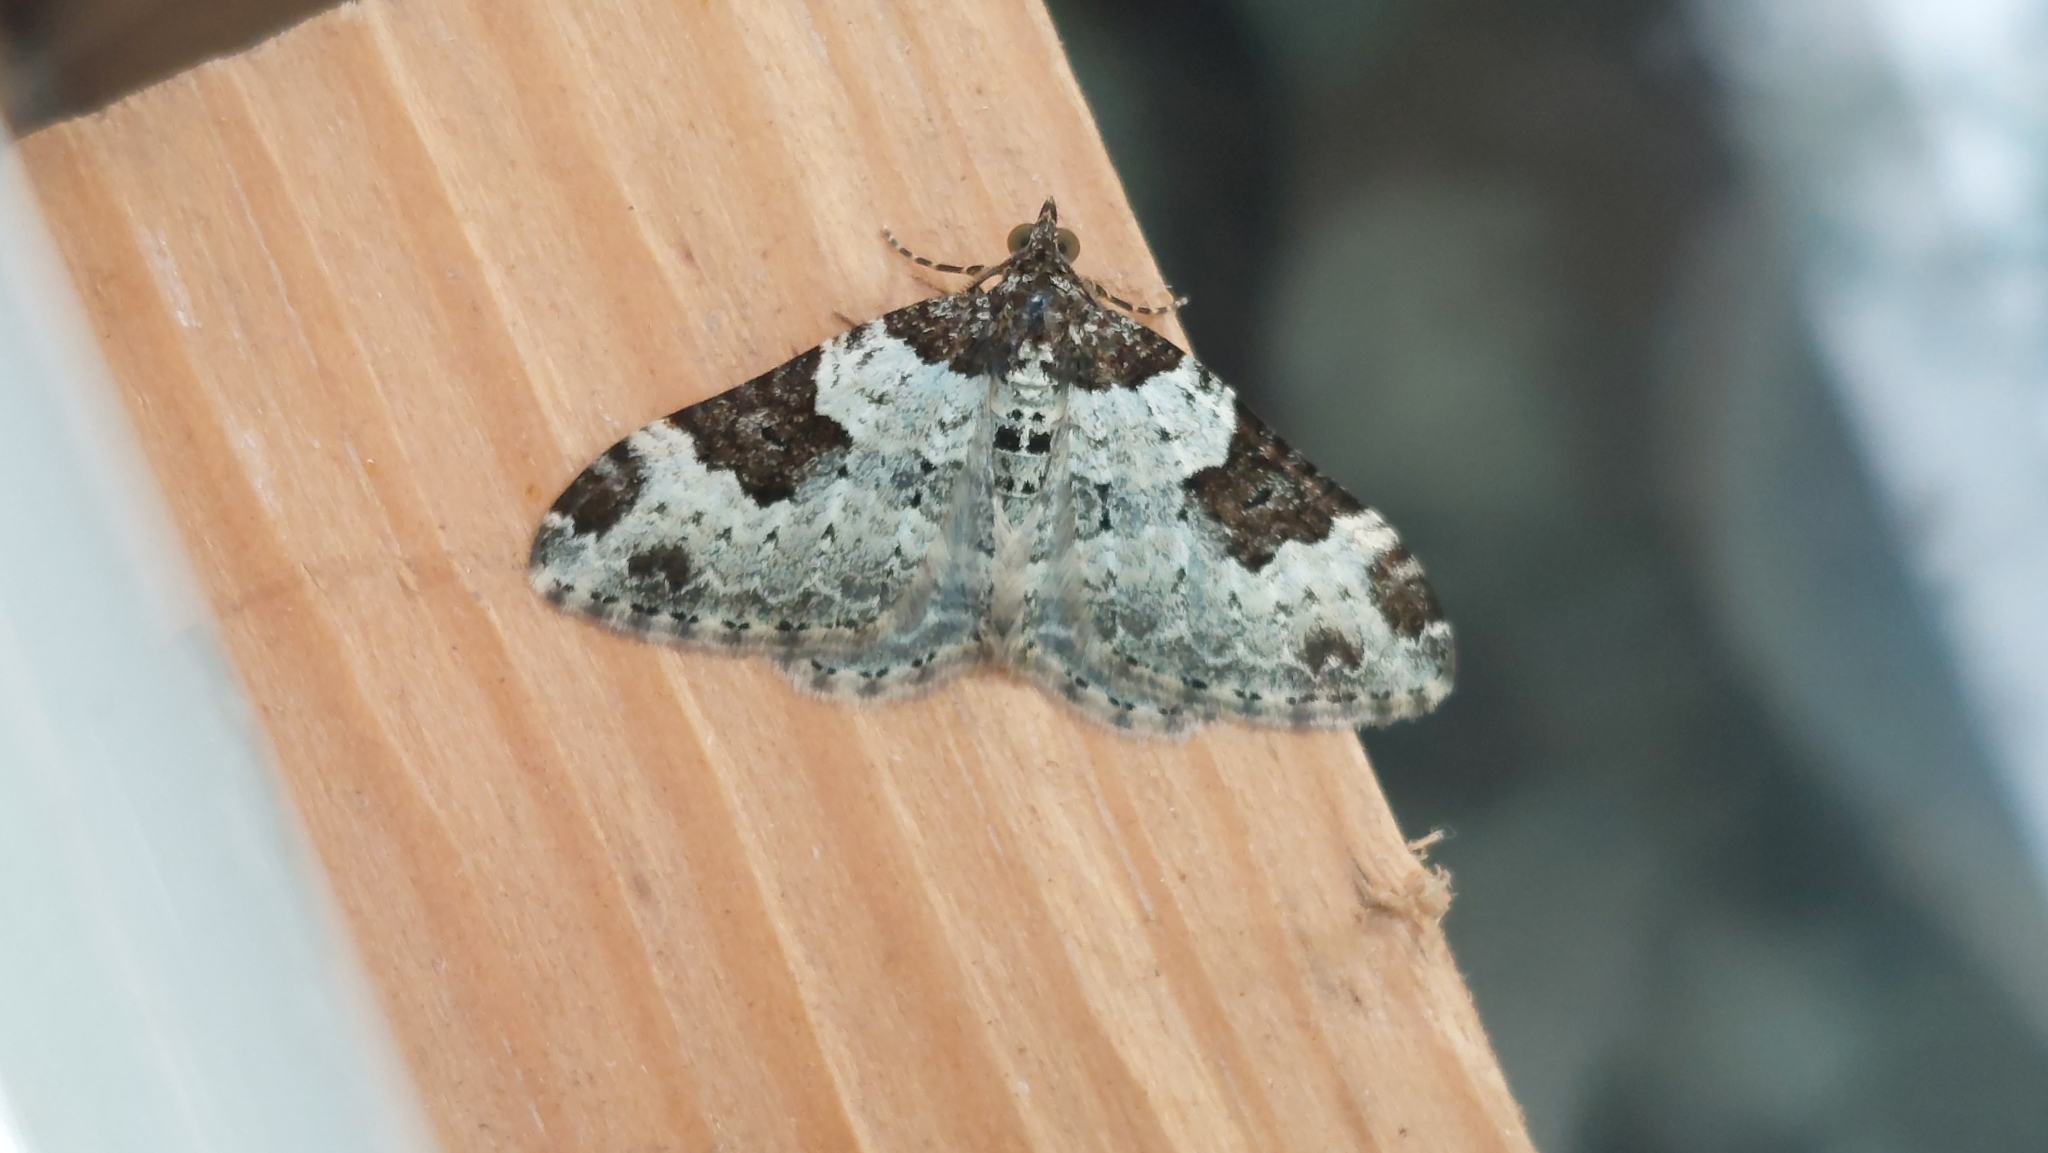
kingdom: Animalia
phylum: Arthropoda
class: Insecta
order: Lepidoptera
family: Geometridae
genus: Xanthorhoe
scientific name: Xanthorhoe fluctuata
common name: Garden carpet
